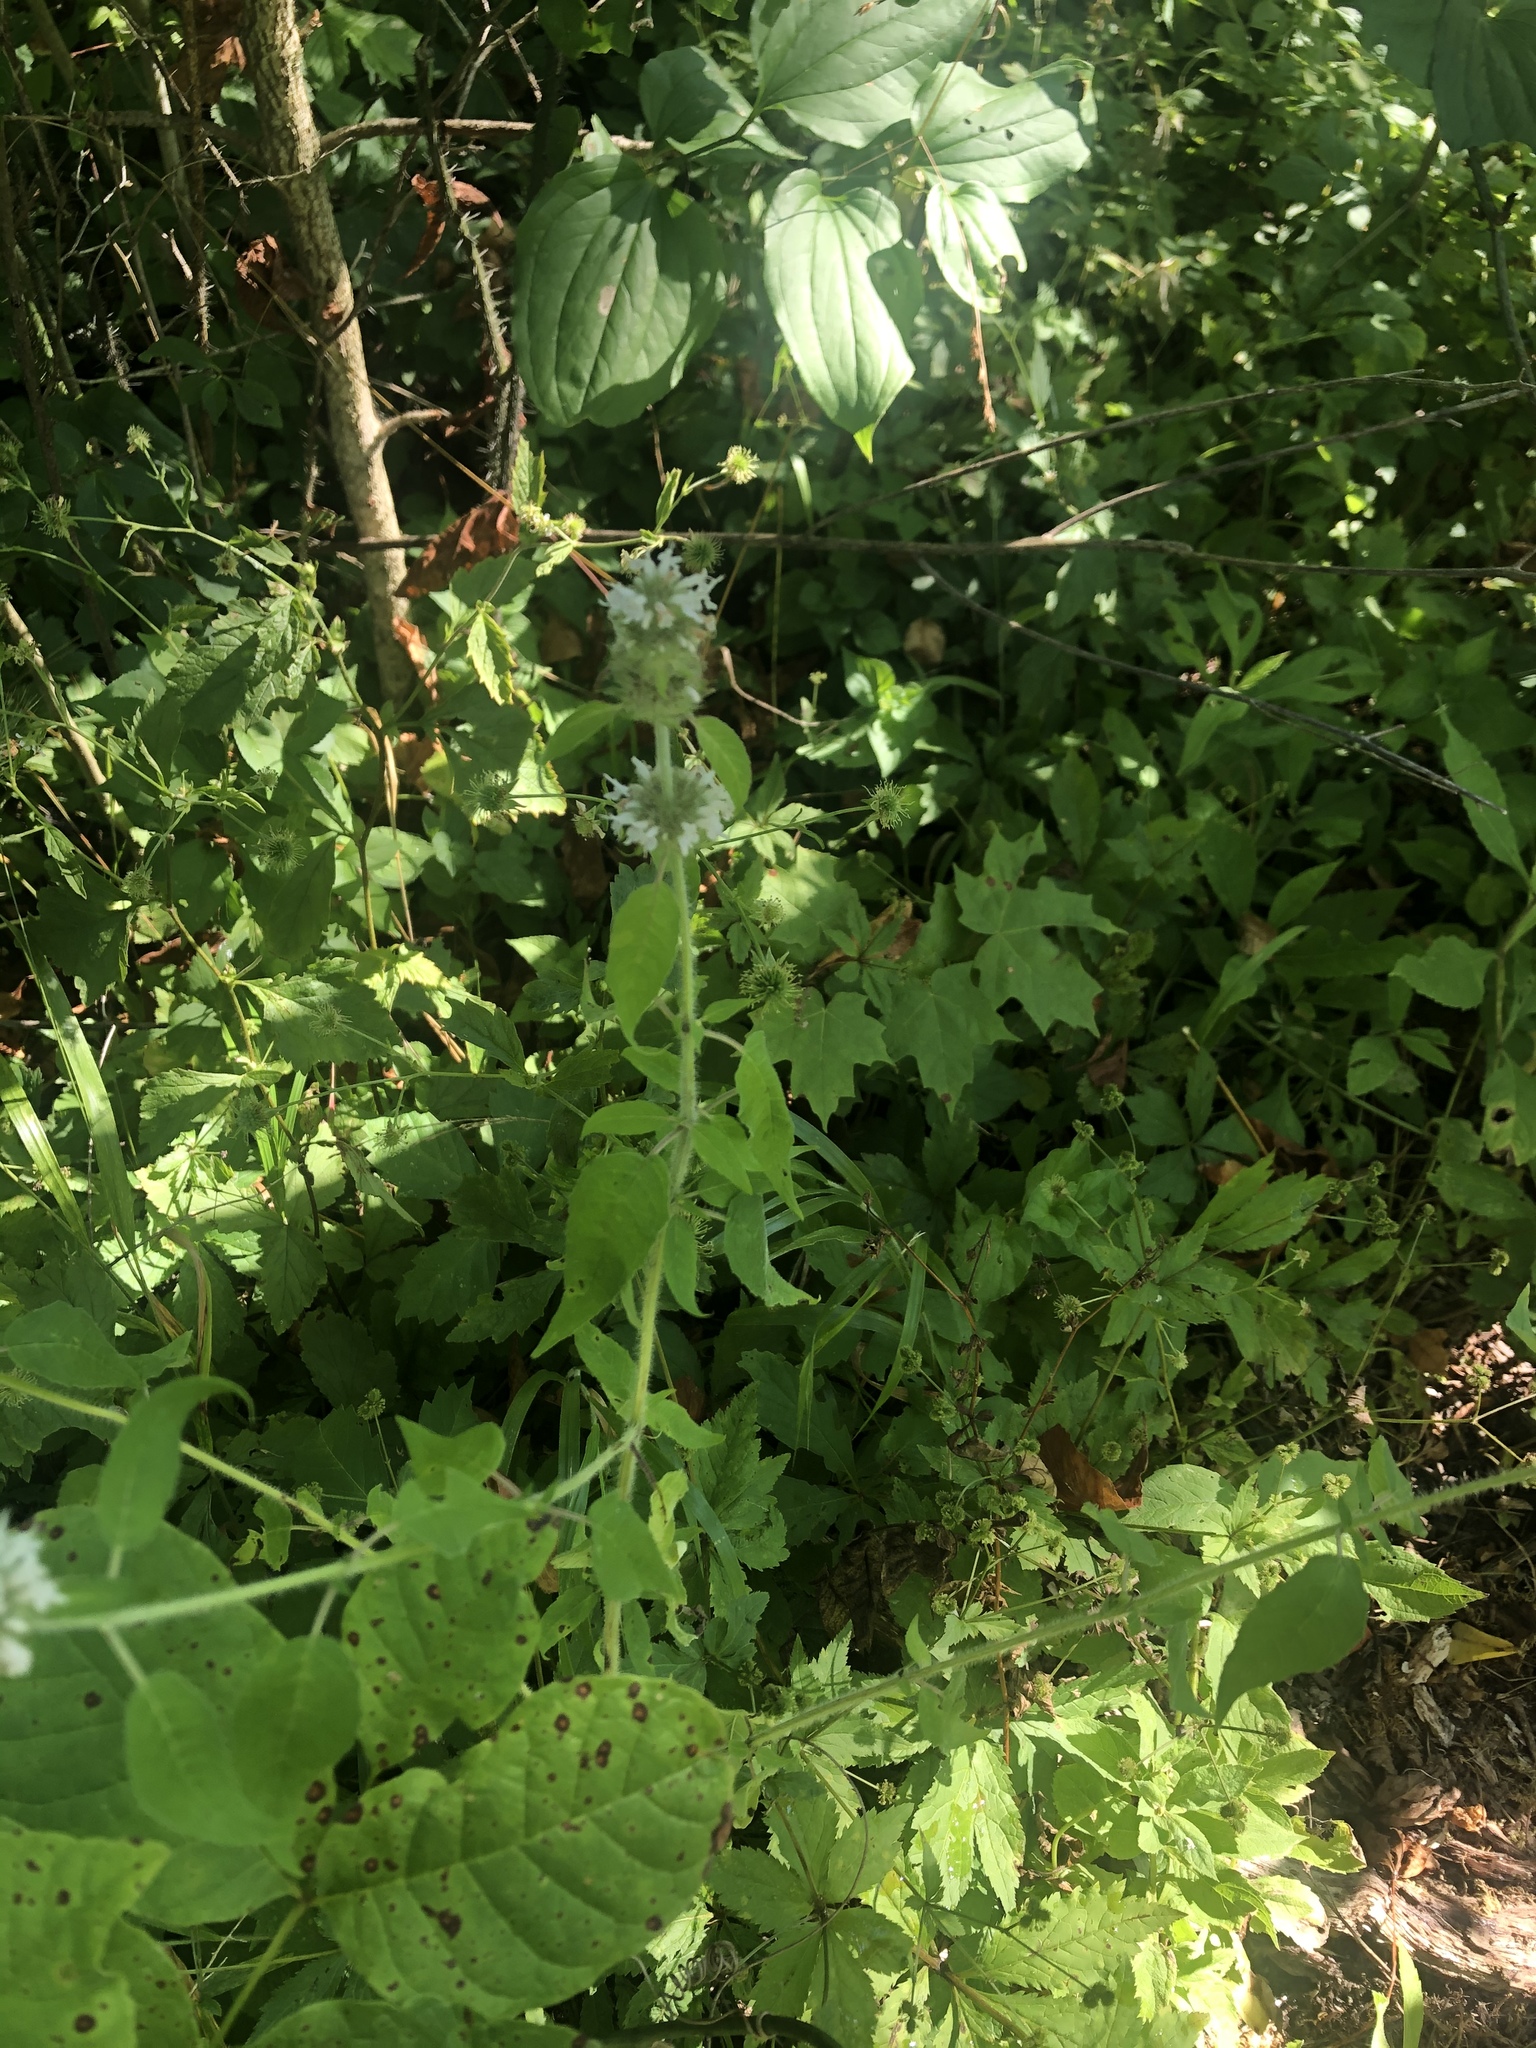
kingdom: Plantae
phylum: Tracheophyta
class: Magnoliopsida
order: Lamiales
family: Lamiaceae
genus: Blephilia
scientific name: Blephilia hirsuta
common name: Hairy blephilia
